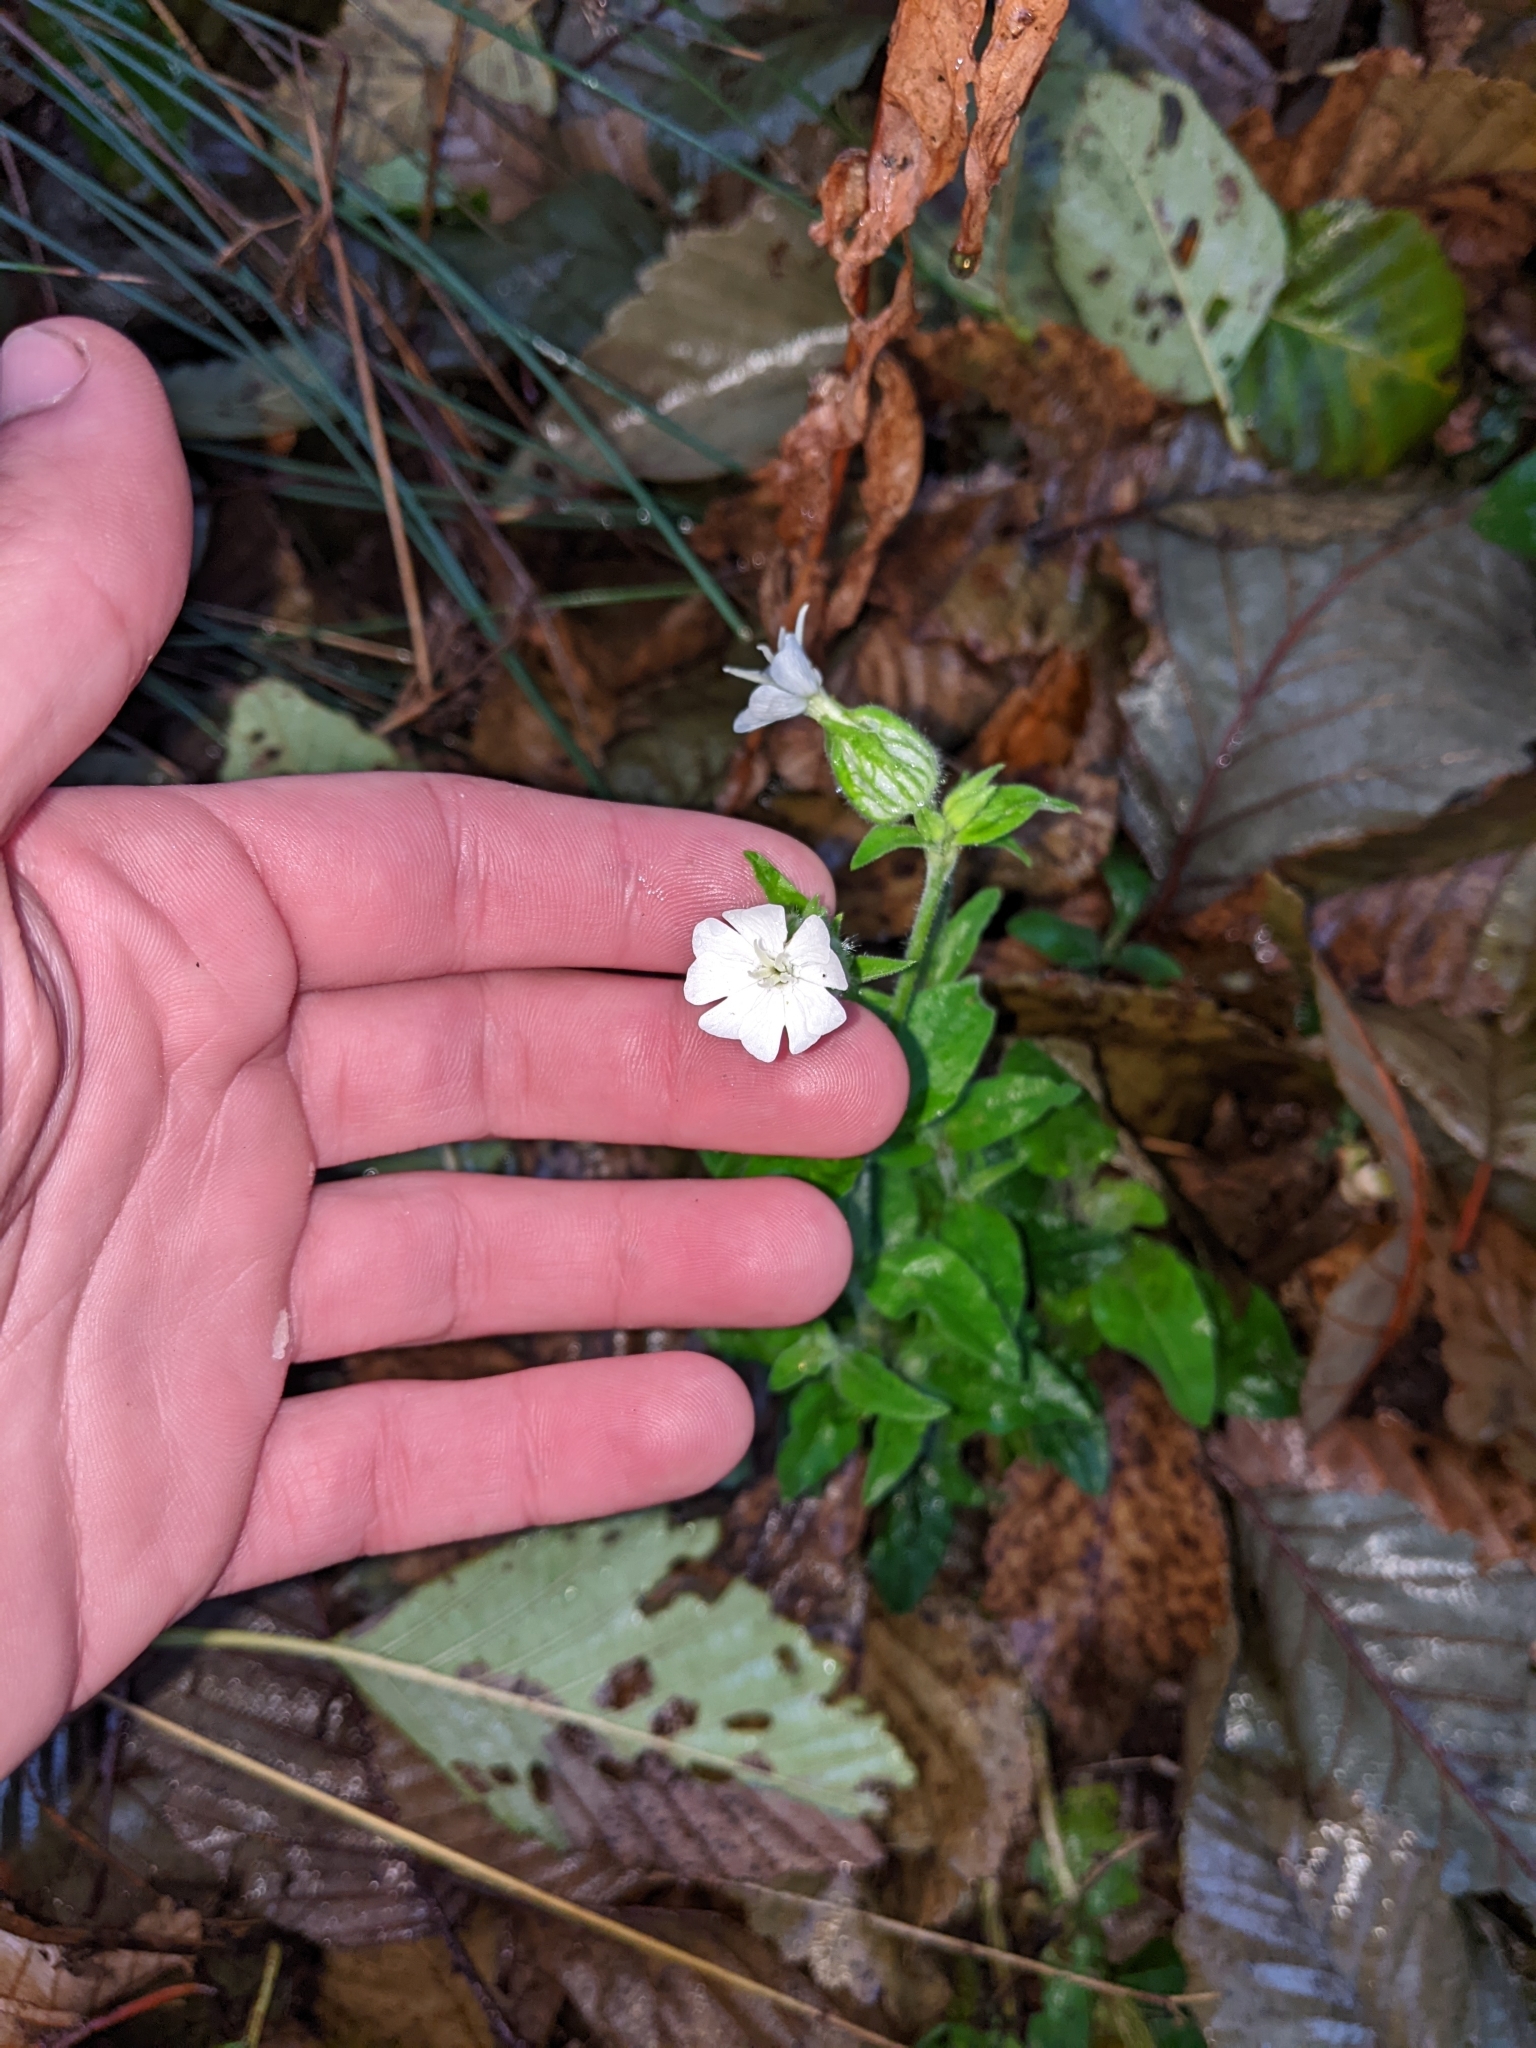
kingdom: Plantae
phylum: Tracheophyta
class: Magnoliopsida
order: Caryophyllales
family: Caryophyllaceae
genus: Silene
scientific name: Silene latifolia
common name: White campion
